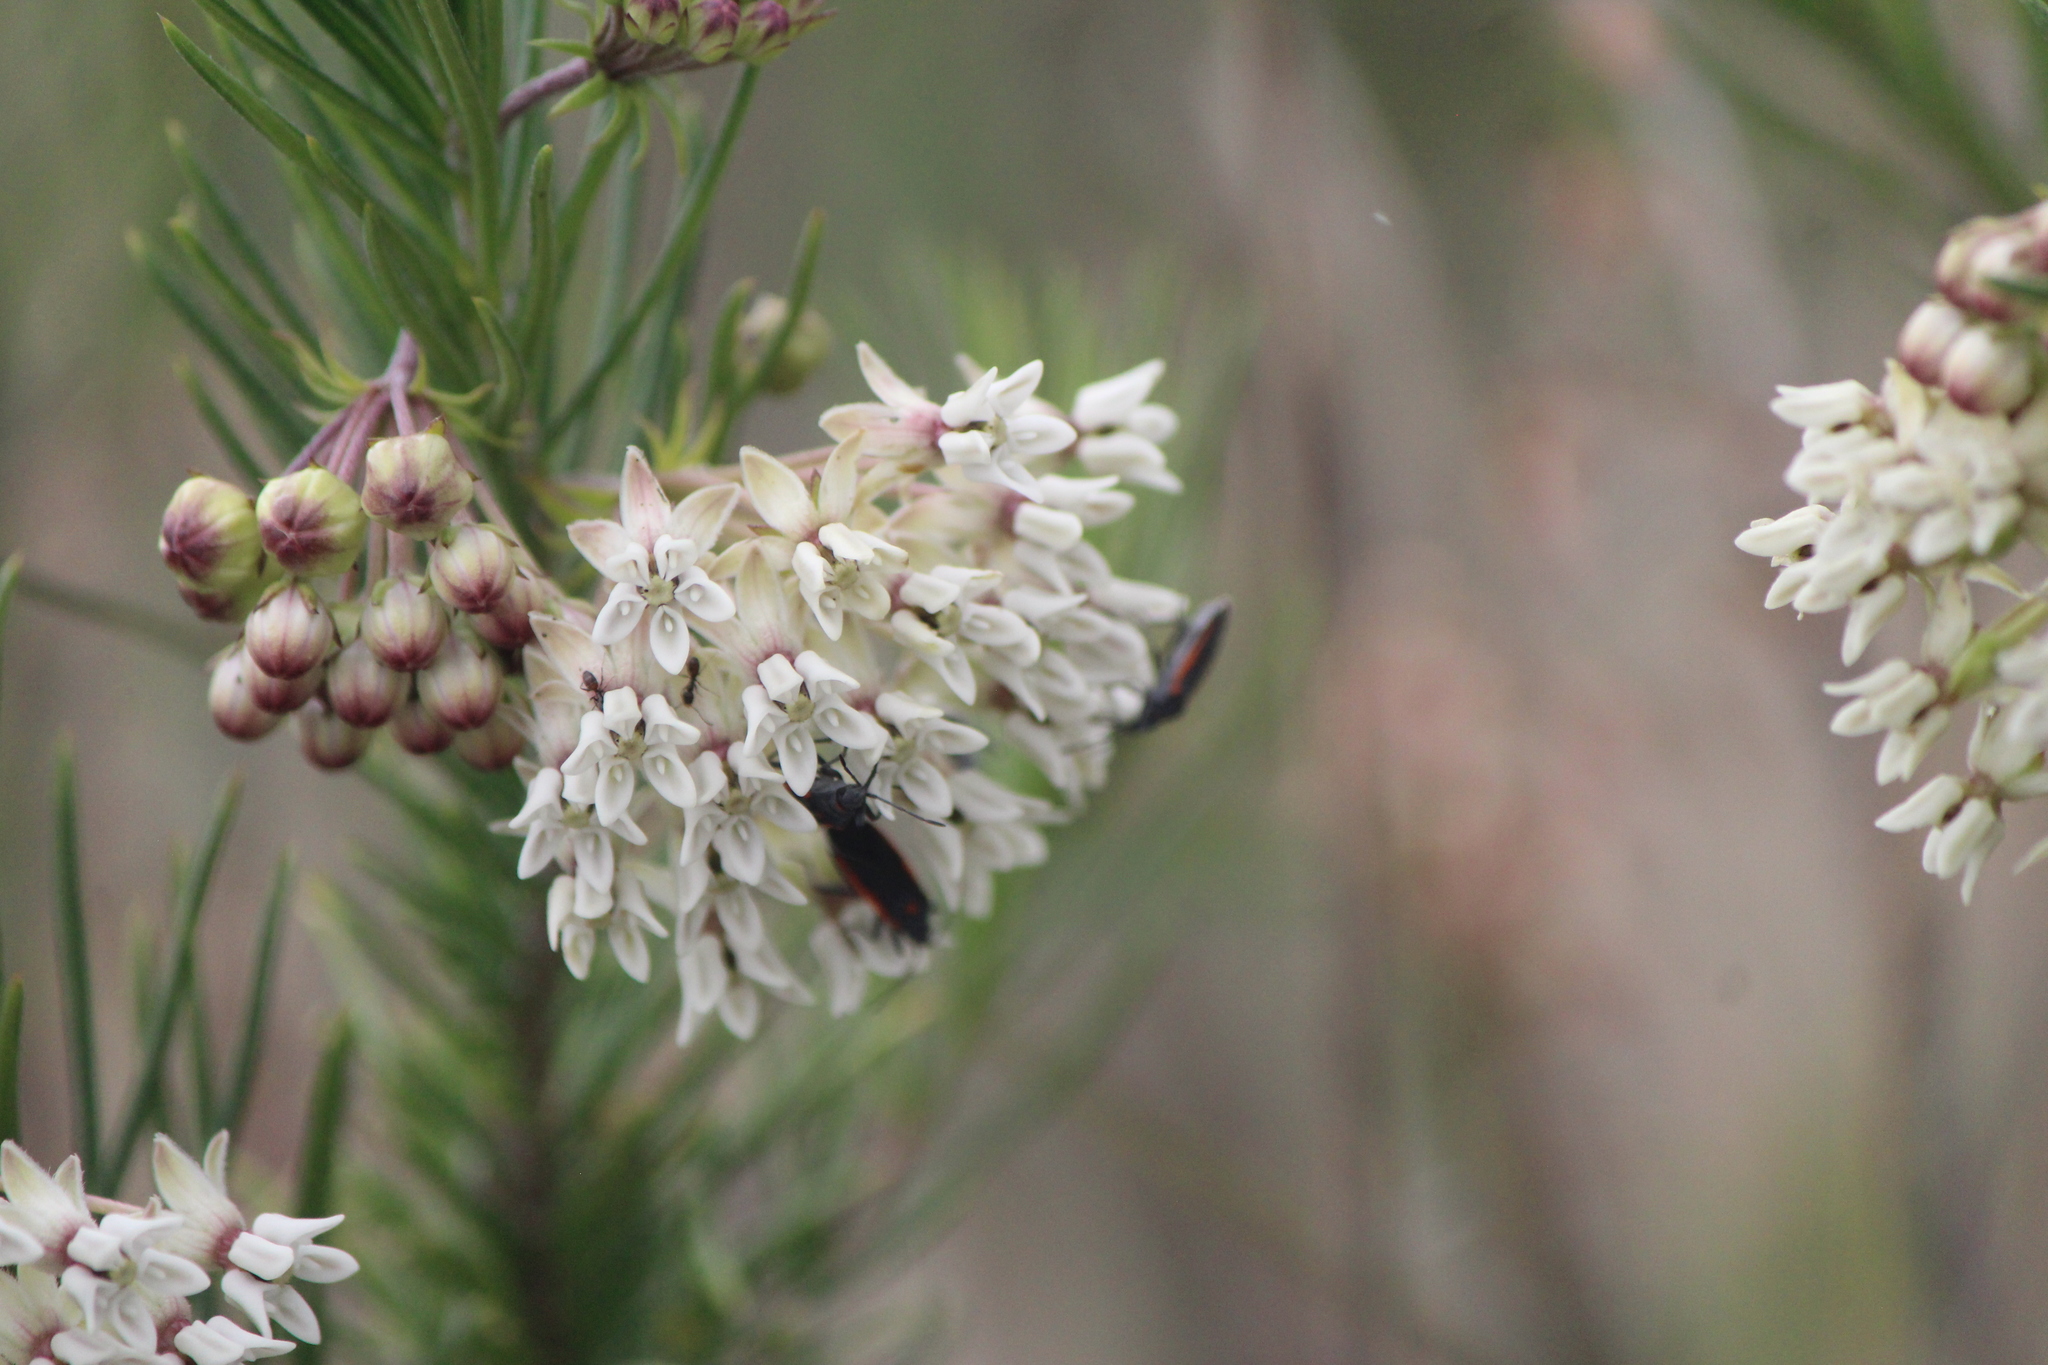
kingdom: Plantae
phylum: Tracheophyta
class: Magnoliopsida
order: Gentianales
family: Apocynaceae
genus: Asclepias
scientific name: Asclepias linaria
